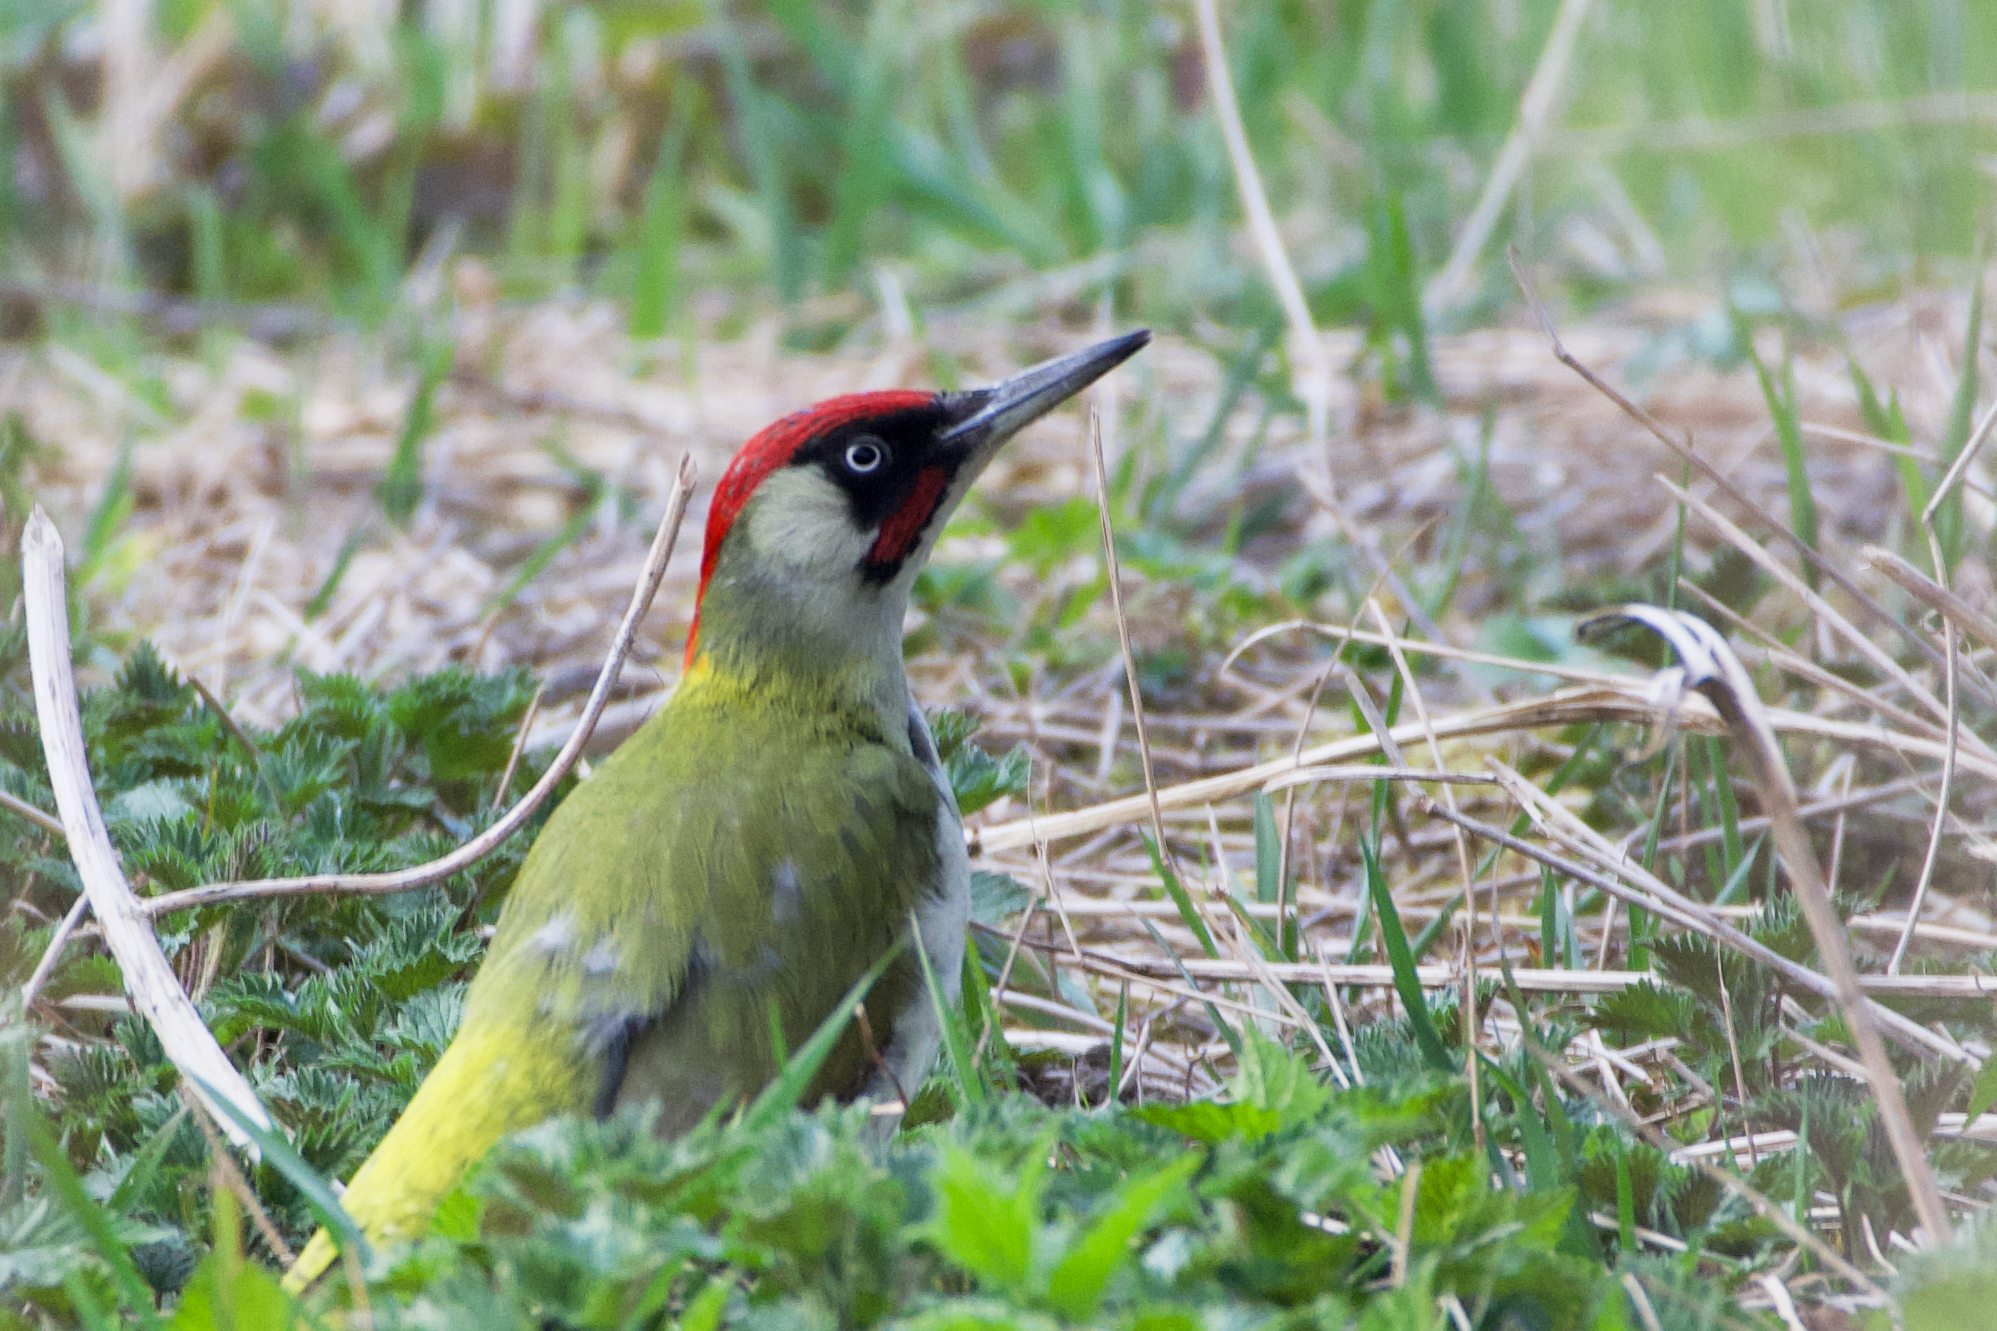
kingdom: Animalia
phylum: Chordata
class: Aves
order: Piciformes
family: Picidae
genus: Picus
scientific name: Picus viridis
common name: European green woodpecker
